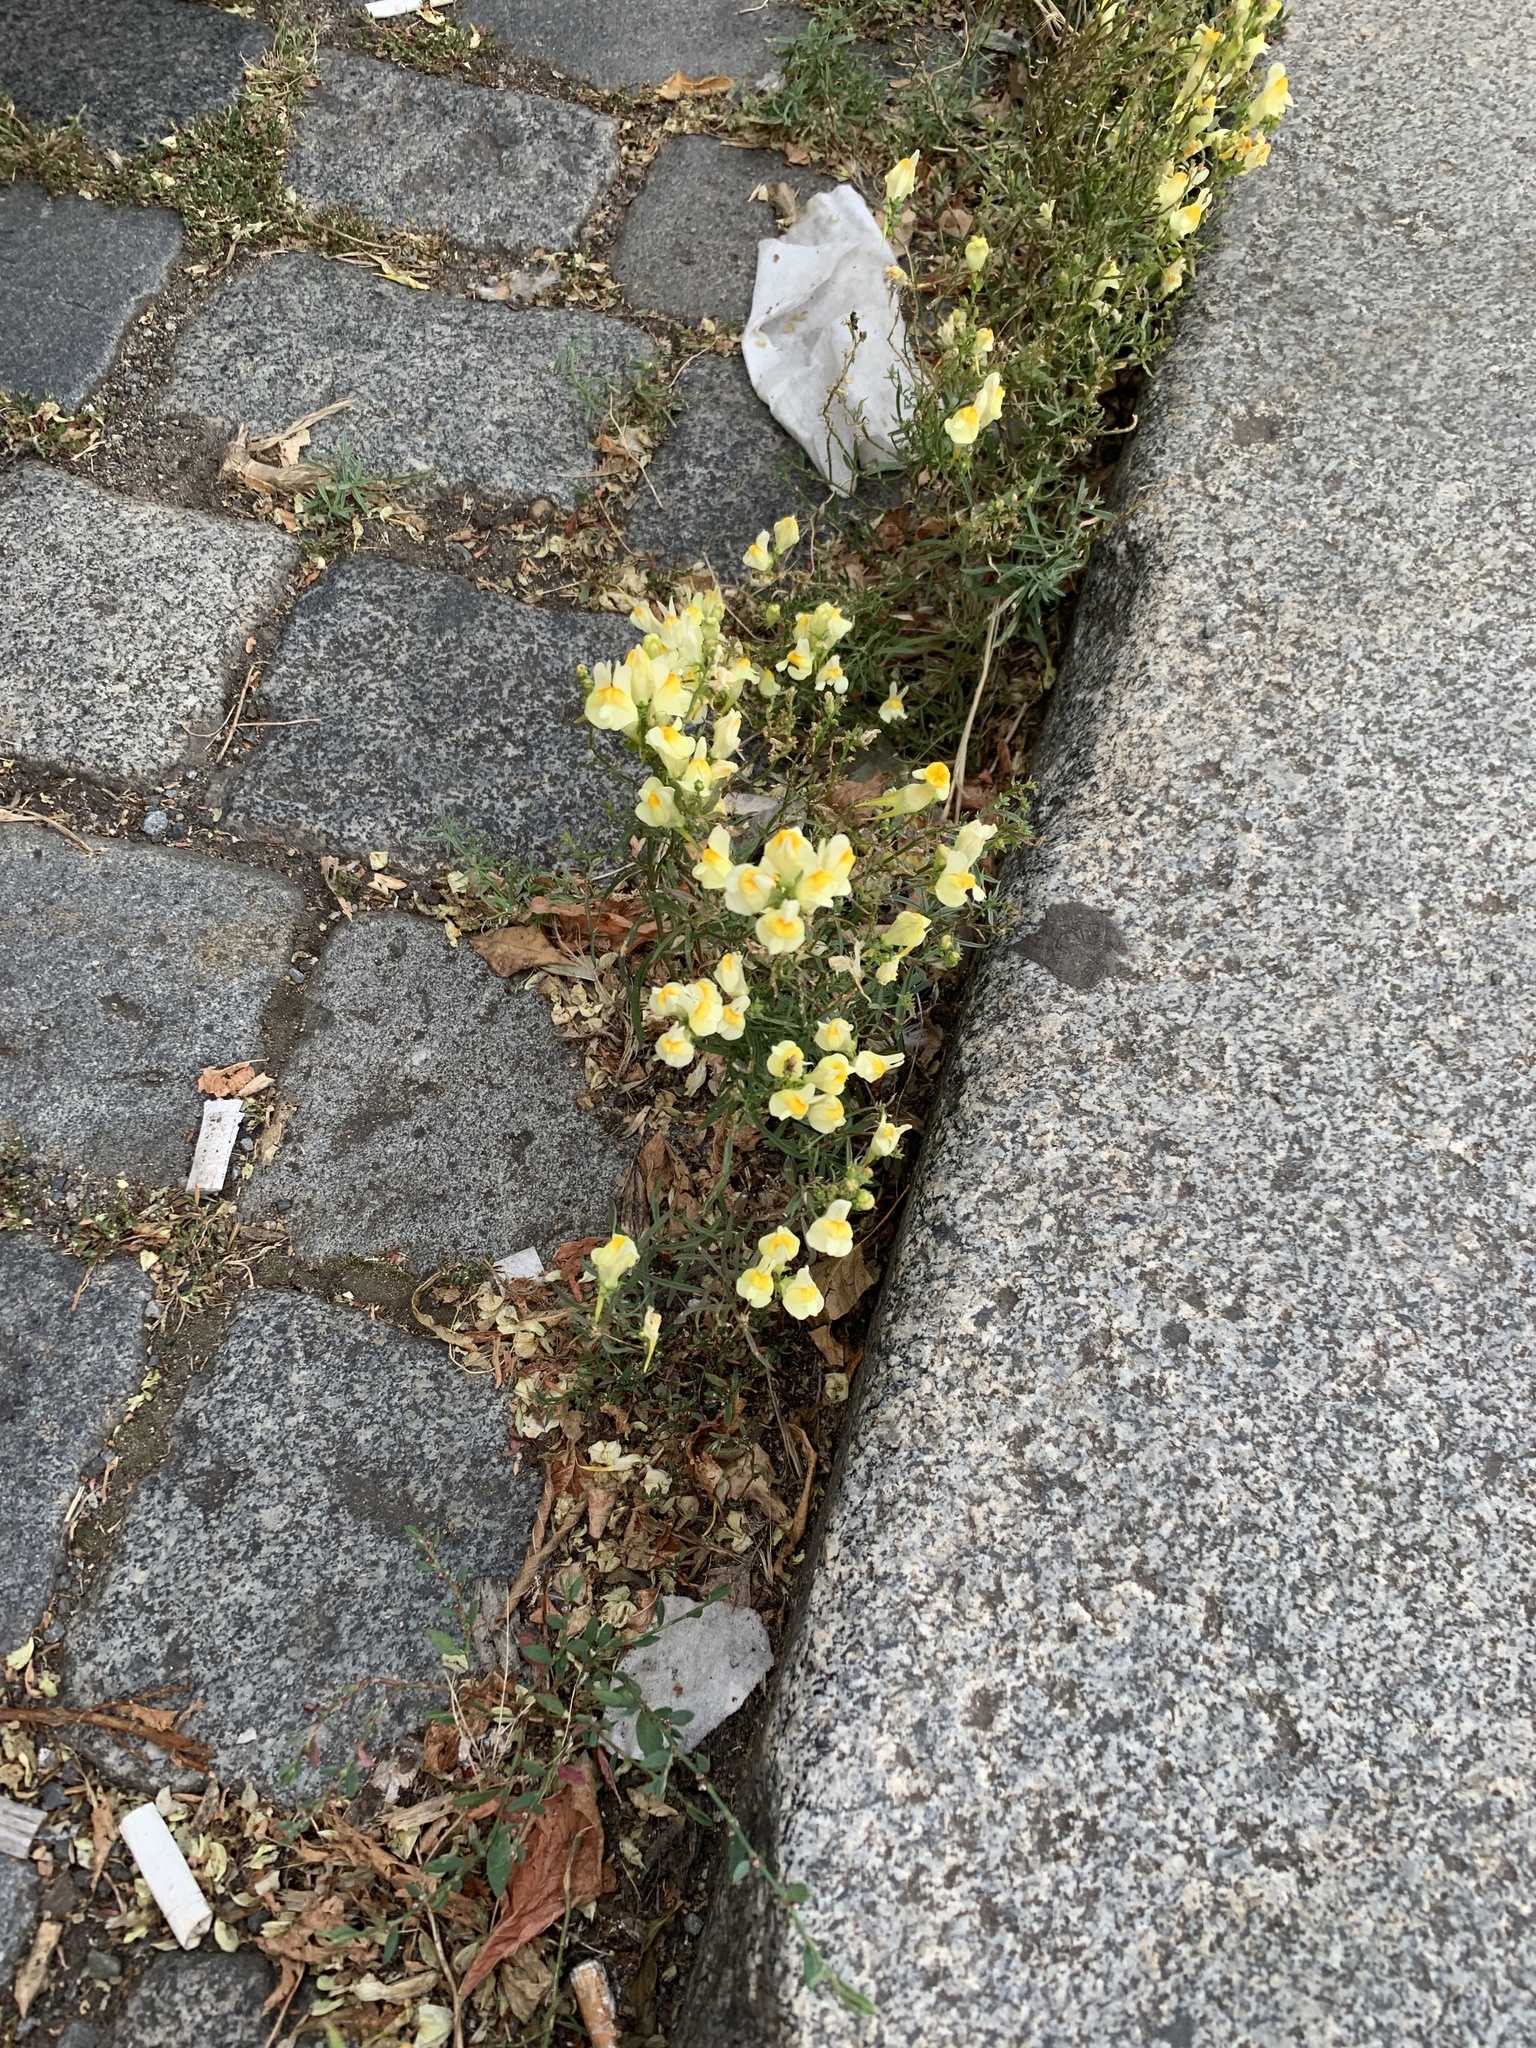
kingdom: Plantae
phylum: Tracheophyta
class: Magnoliopsida
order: Lamiales
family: Plantaginaceae
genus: Linaria
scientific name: Linaria vulgaris
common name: Butter and eggs
